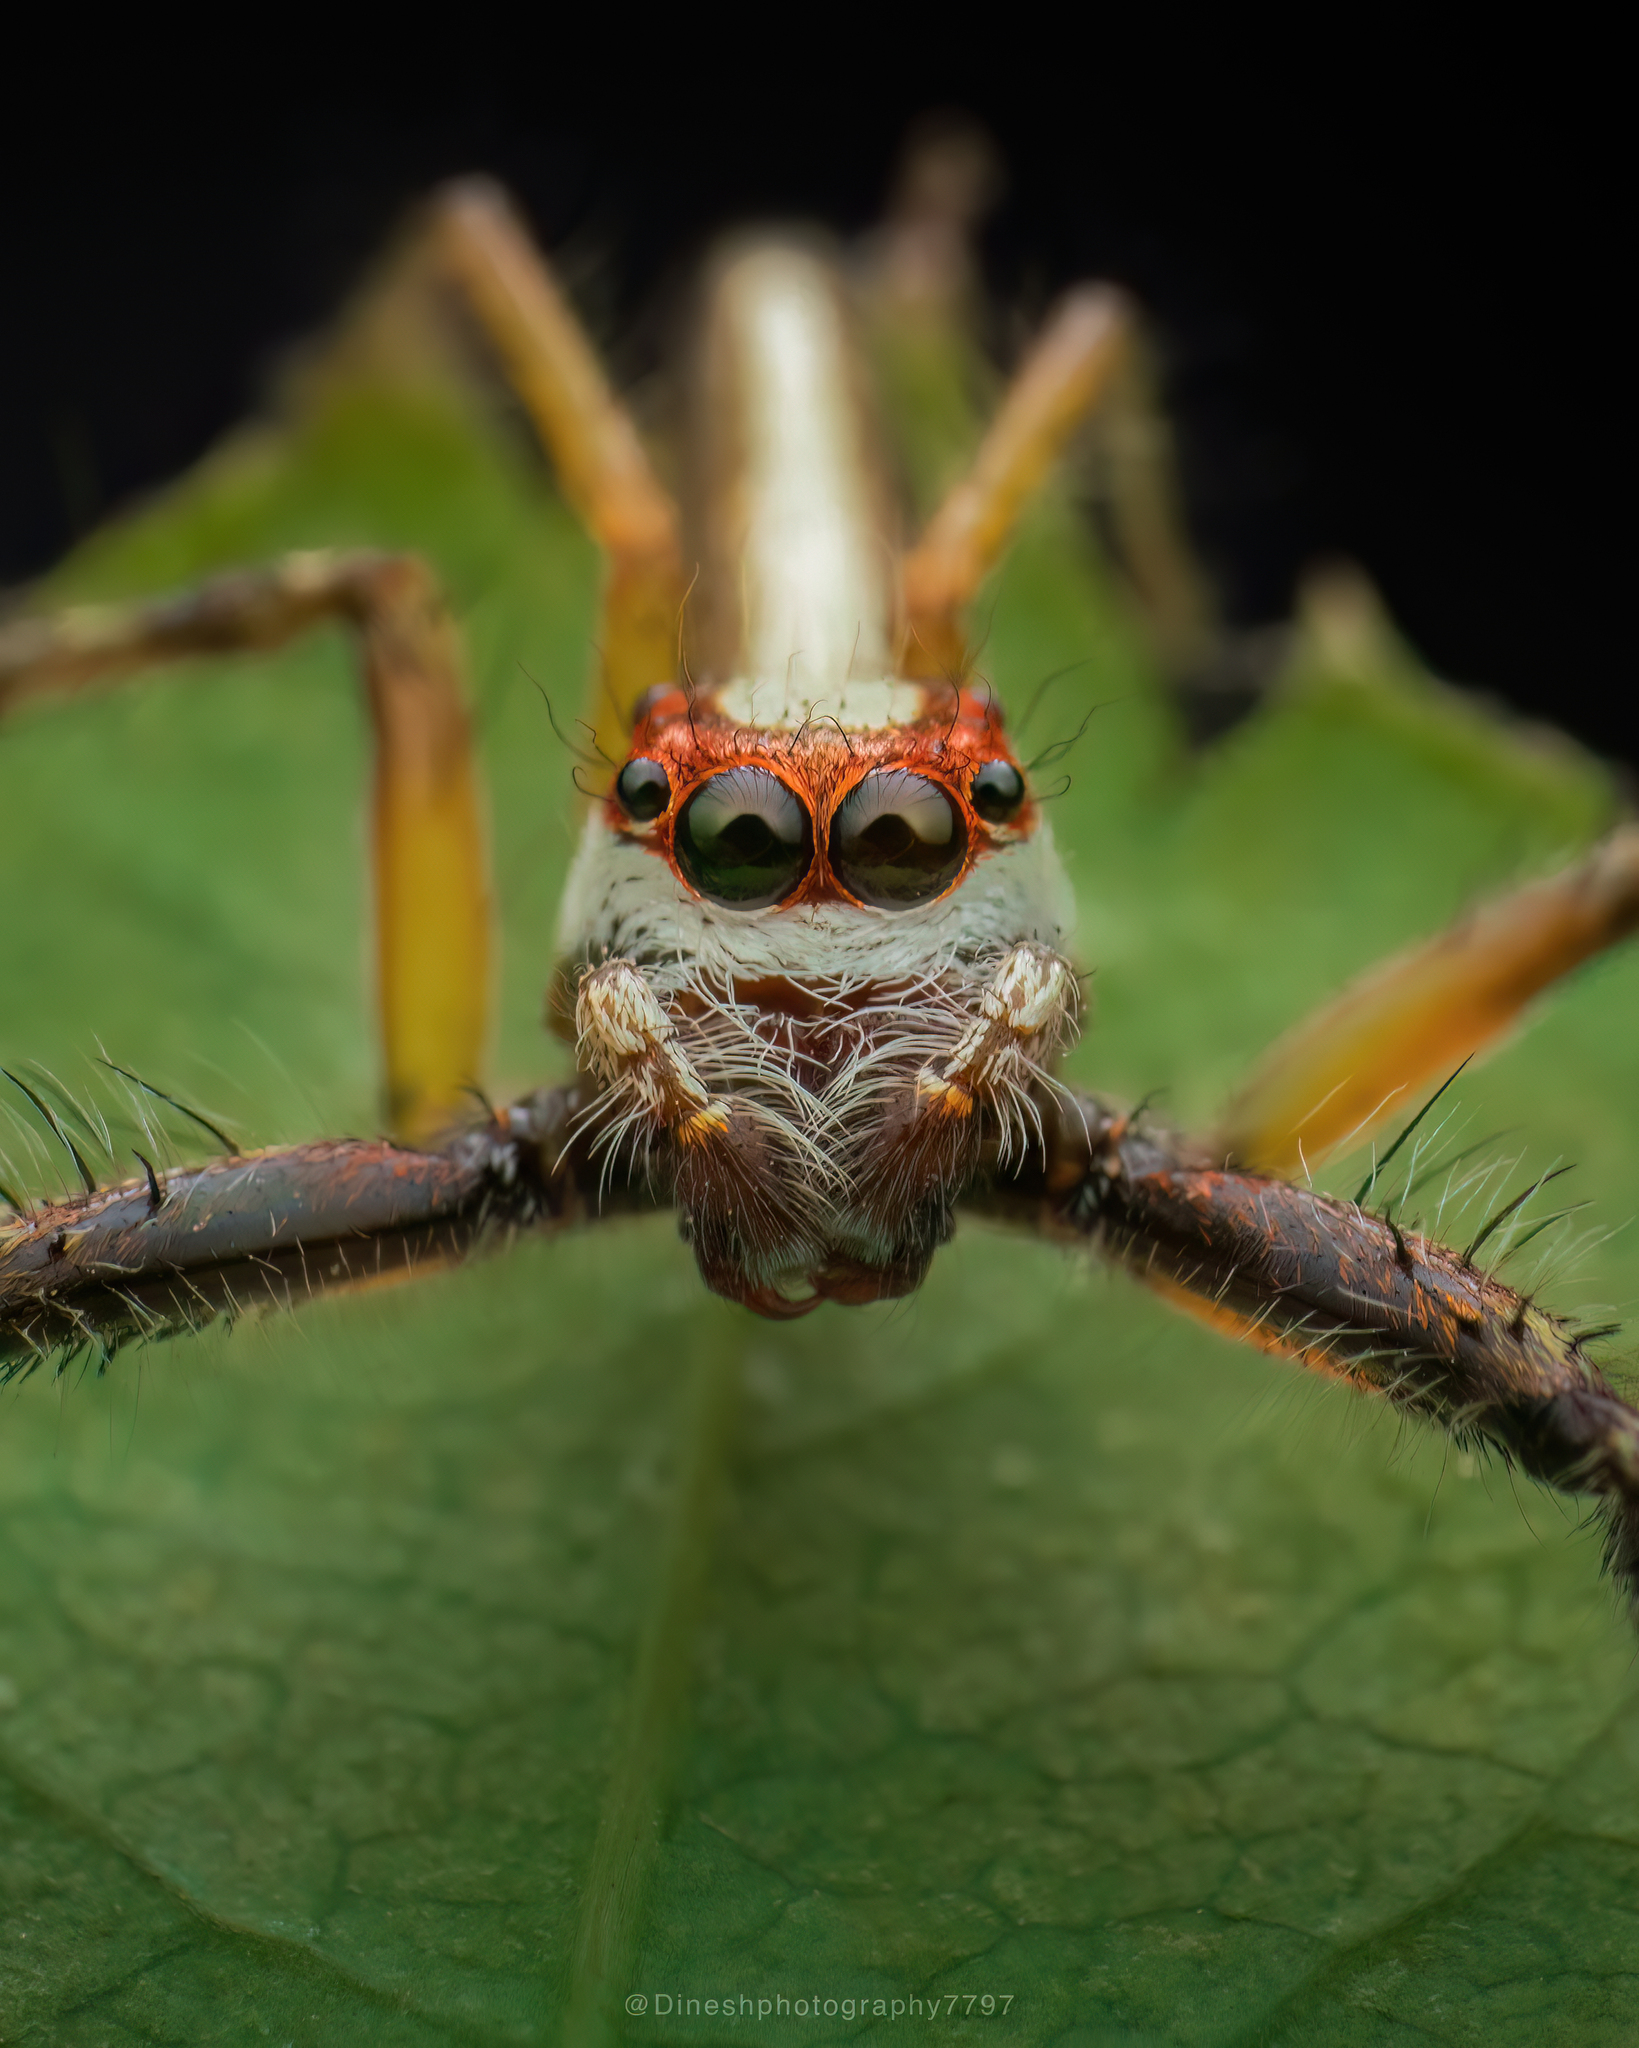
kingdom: Animalia
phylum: Arthropoda
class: Arachnida
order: Araneae
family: Salticidae
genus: Telamonia
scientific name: Telamonia dimidiata
